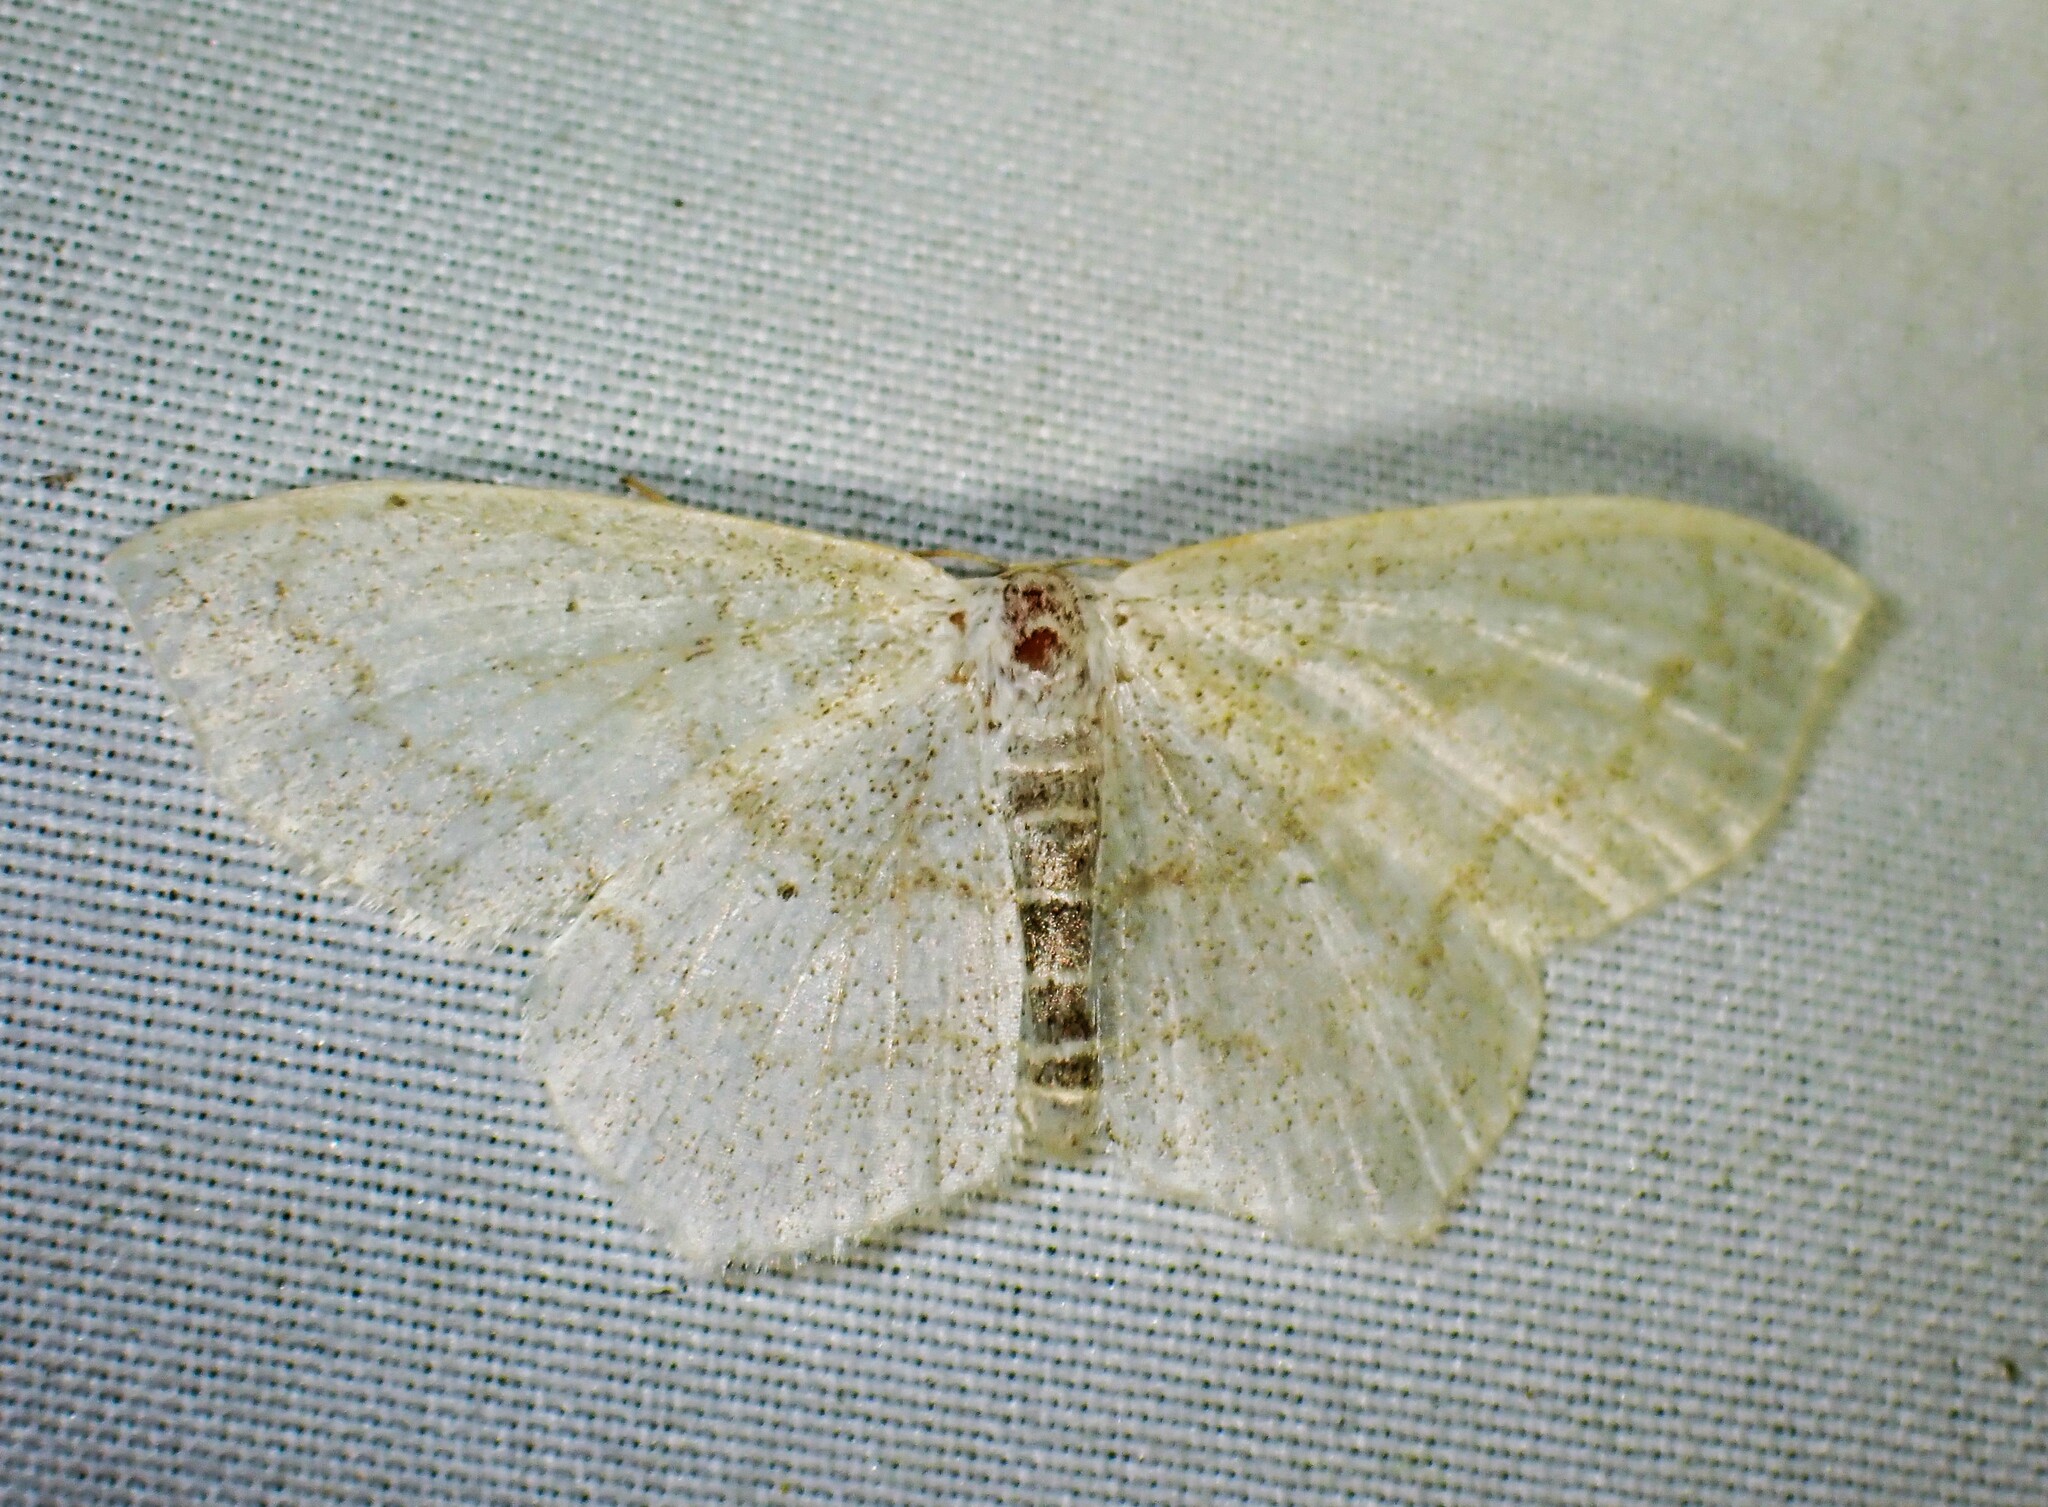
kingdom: Animalia
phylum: Arthropoda
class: Insecta
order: Lepidoptera
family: Geometridae
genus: Scopula
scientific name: Scopula limboundata
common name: Large lace border
